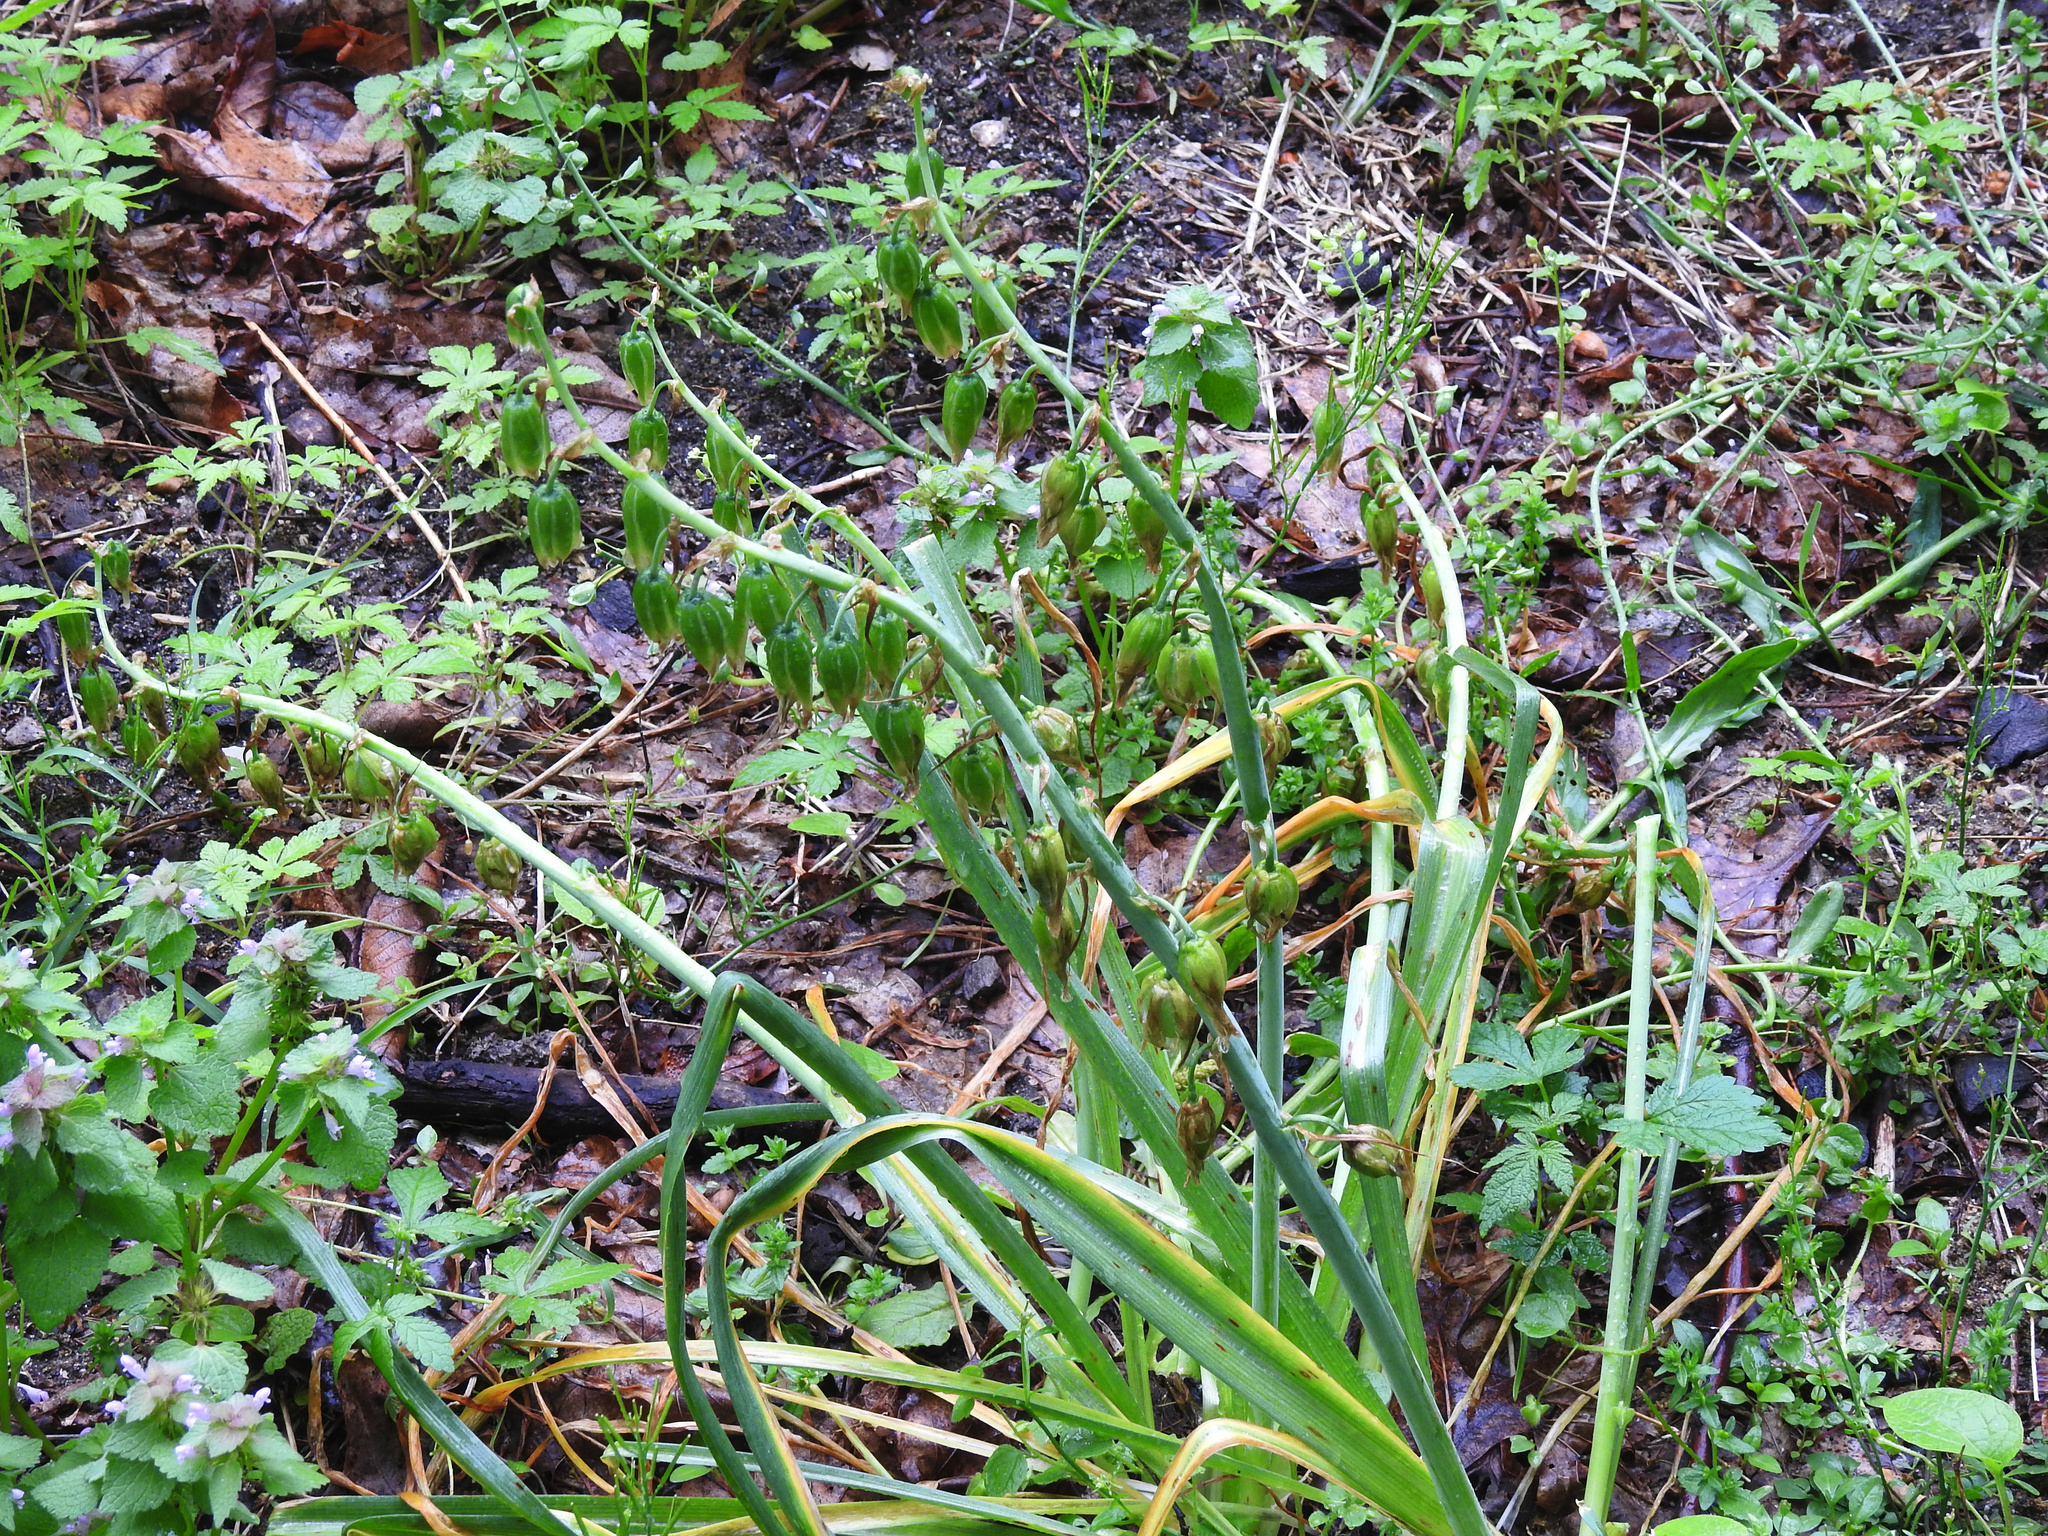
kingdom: Plantae
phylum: Tracheophyta
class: Liliopsida
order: Asparagales
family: Asparagaceae
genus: Ornithogalum
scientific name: Ornithogalum nutans
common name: Drooping star-of-bethlehem
